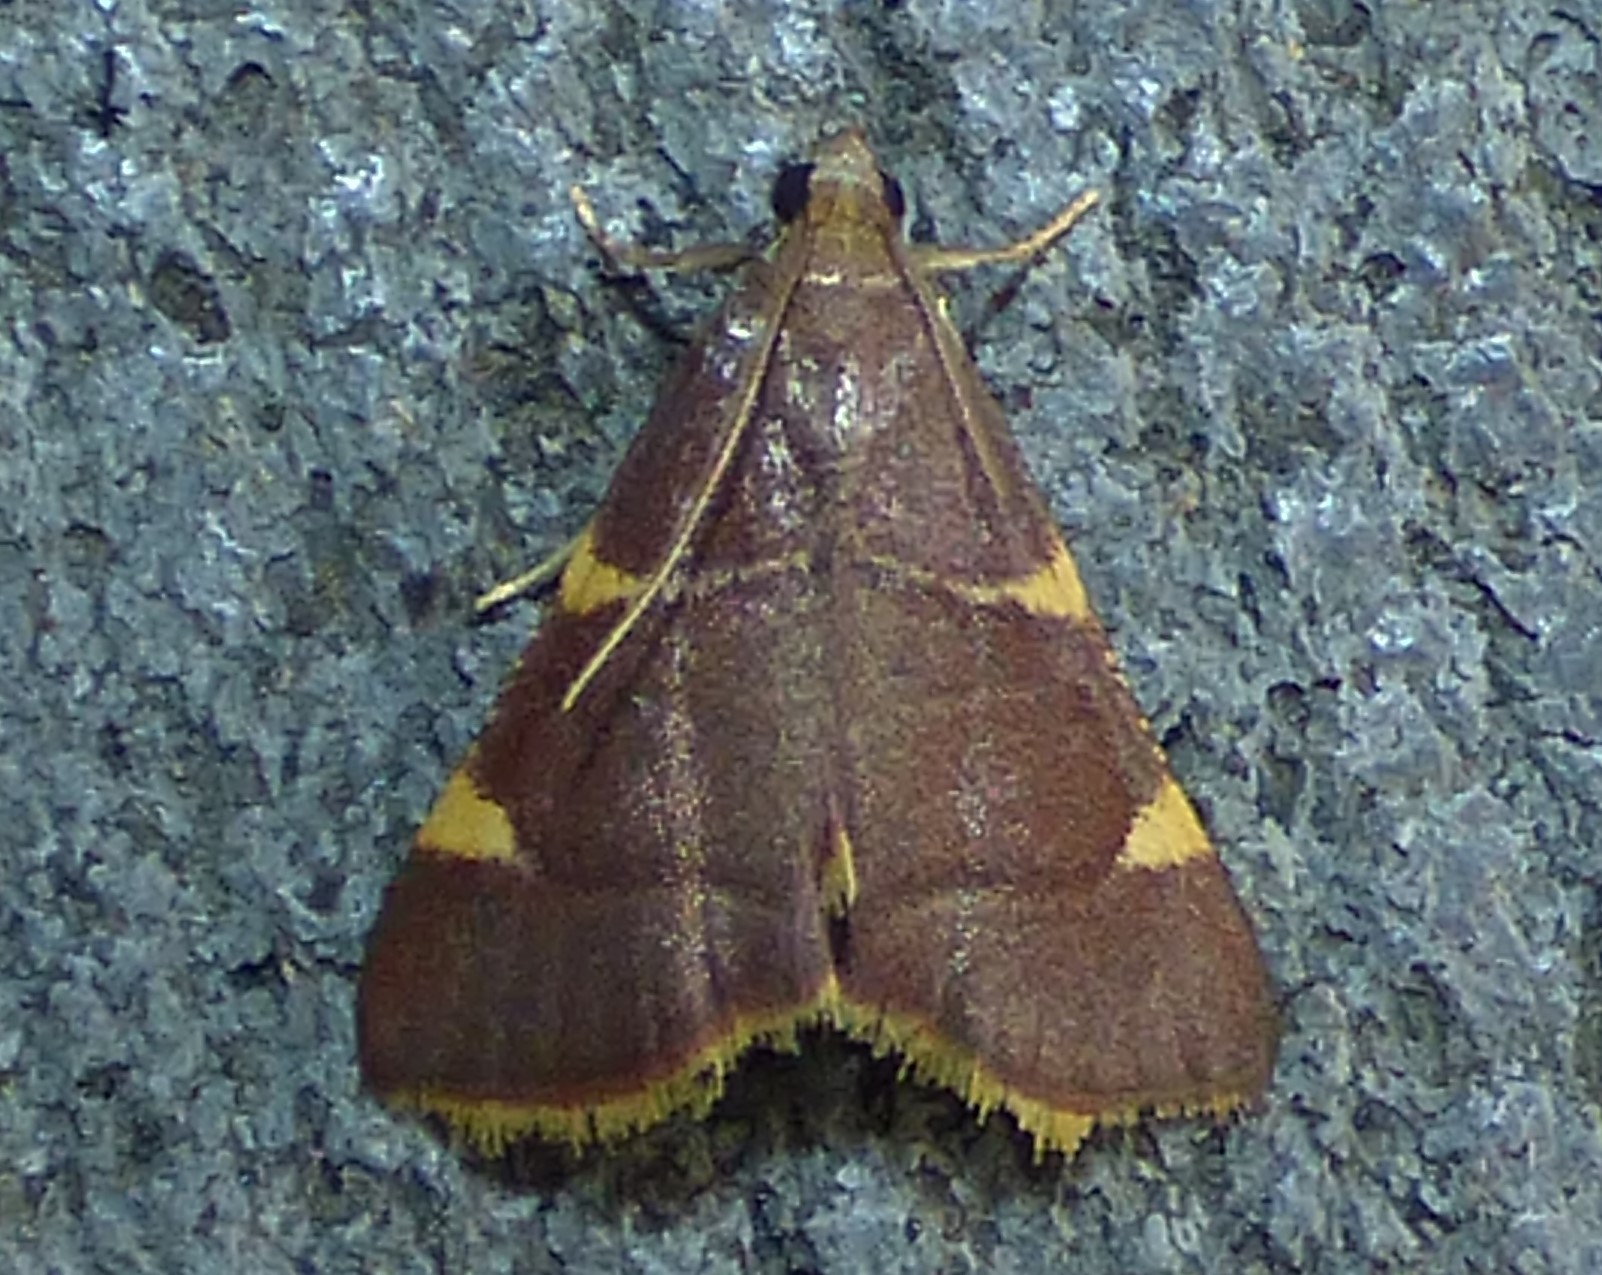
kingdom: Animalia
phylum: Arthropoda
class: Insecta
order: Lepidoptera
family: Pyralidae
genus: Hypsopygia
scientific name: Hypsopygia olinalis
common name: Yellow-fringed dolichomia moth
